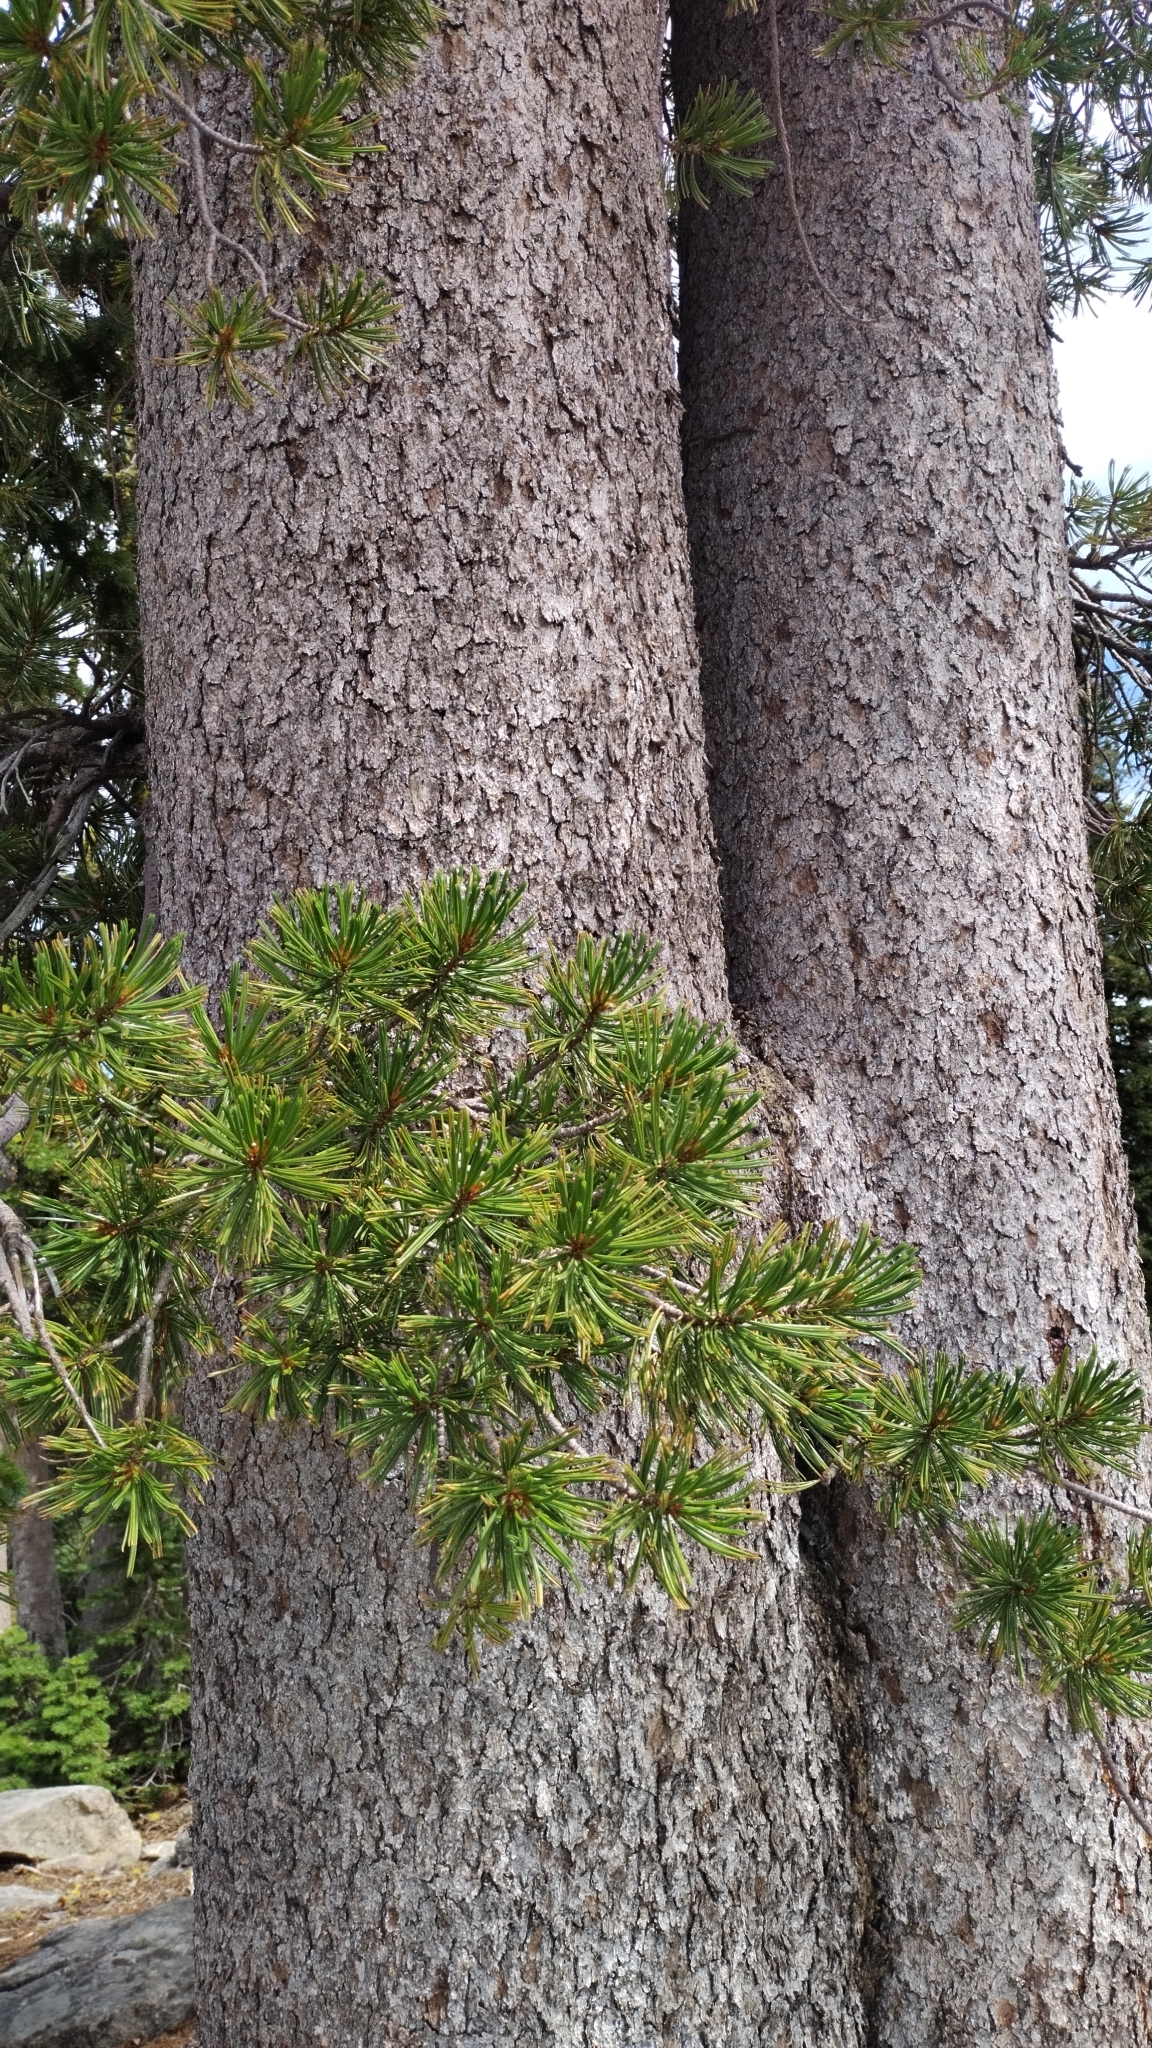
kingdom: Plantae
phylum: Tracheophyta
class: Pinopsida
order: Pinales
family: Pinaceae
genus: Pinus
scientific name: Pinus albicaulis
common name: Whitebark pine
